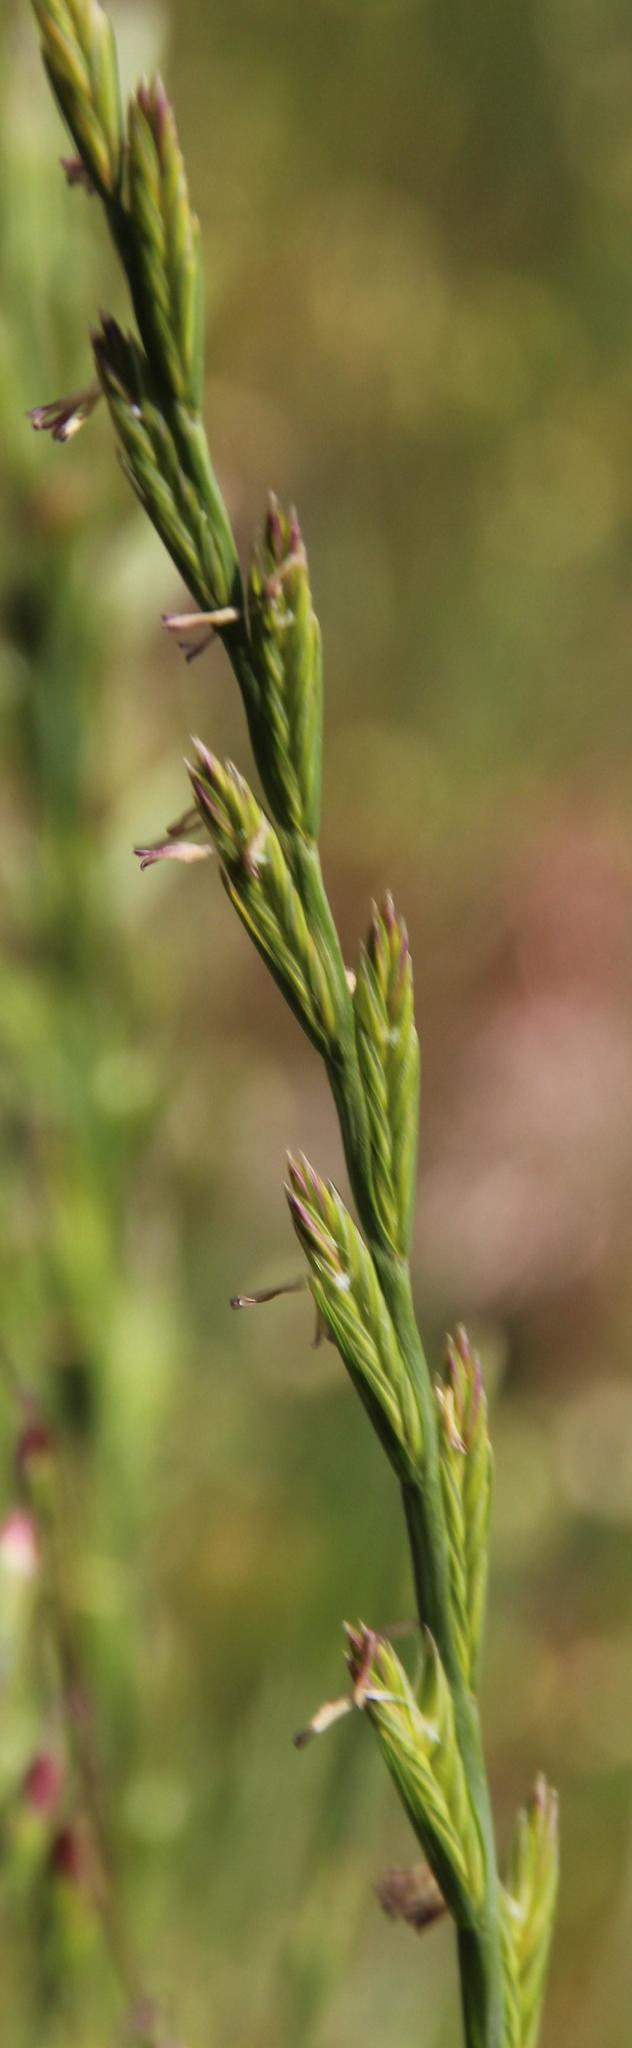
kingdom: Plantae
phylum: Tracheophyta
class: Liliopsida
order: Poales
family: Poaceae
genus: Lolium
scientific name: Lolium multiflorum
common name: Annual ryegrass
